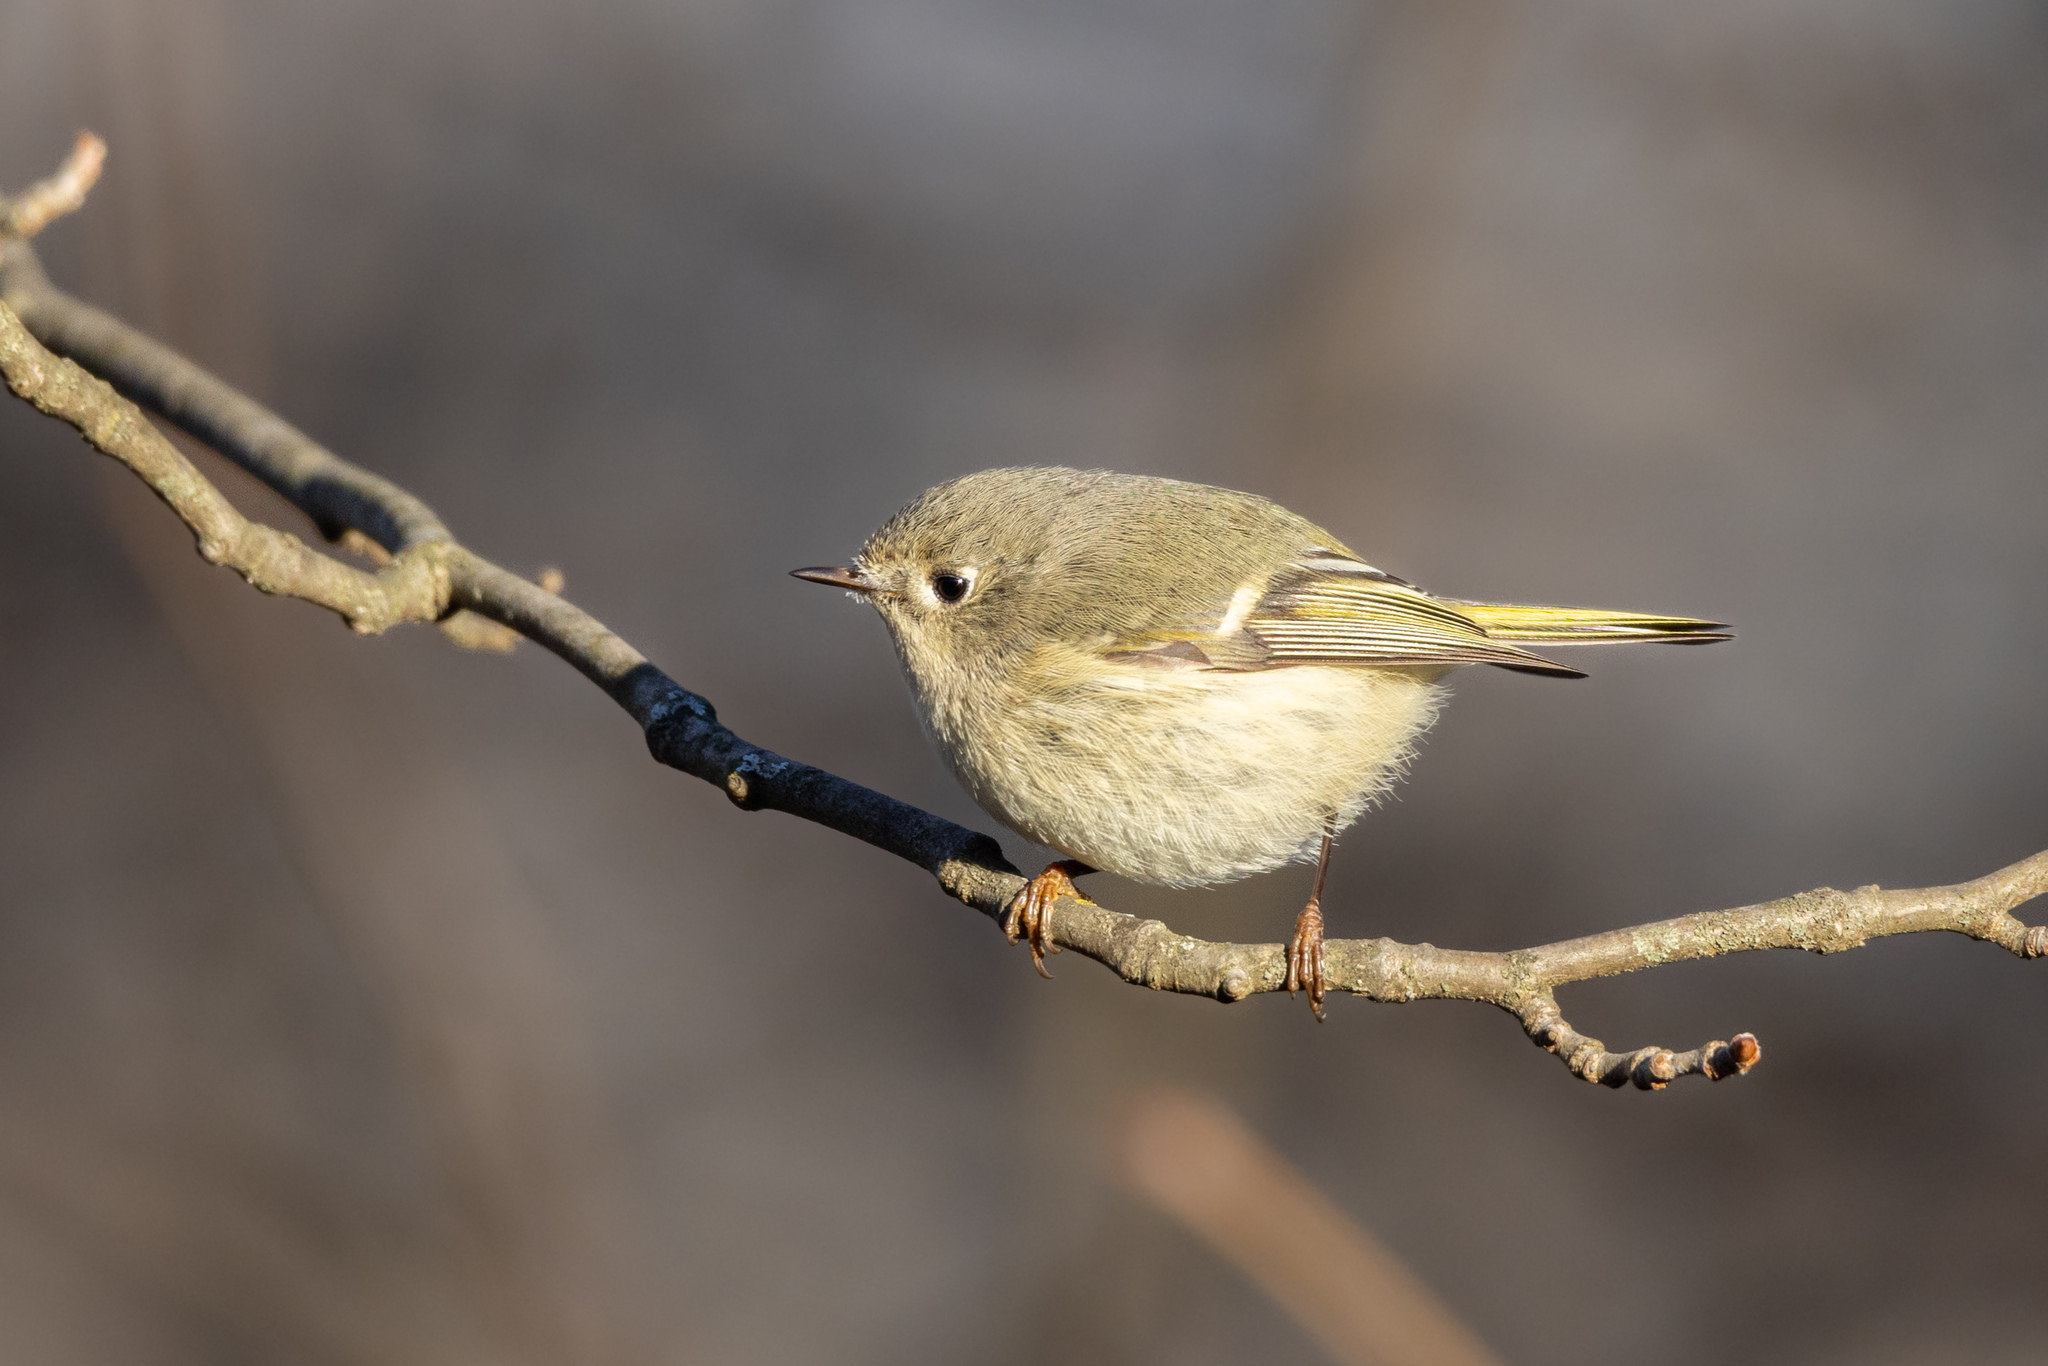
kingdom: Animalia
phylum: Chordata
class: Aves
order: Passeriformes
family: Regulidae
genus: Regulus
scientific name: Regulus calendula
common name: Ruby-crowned kinglet
